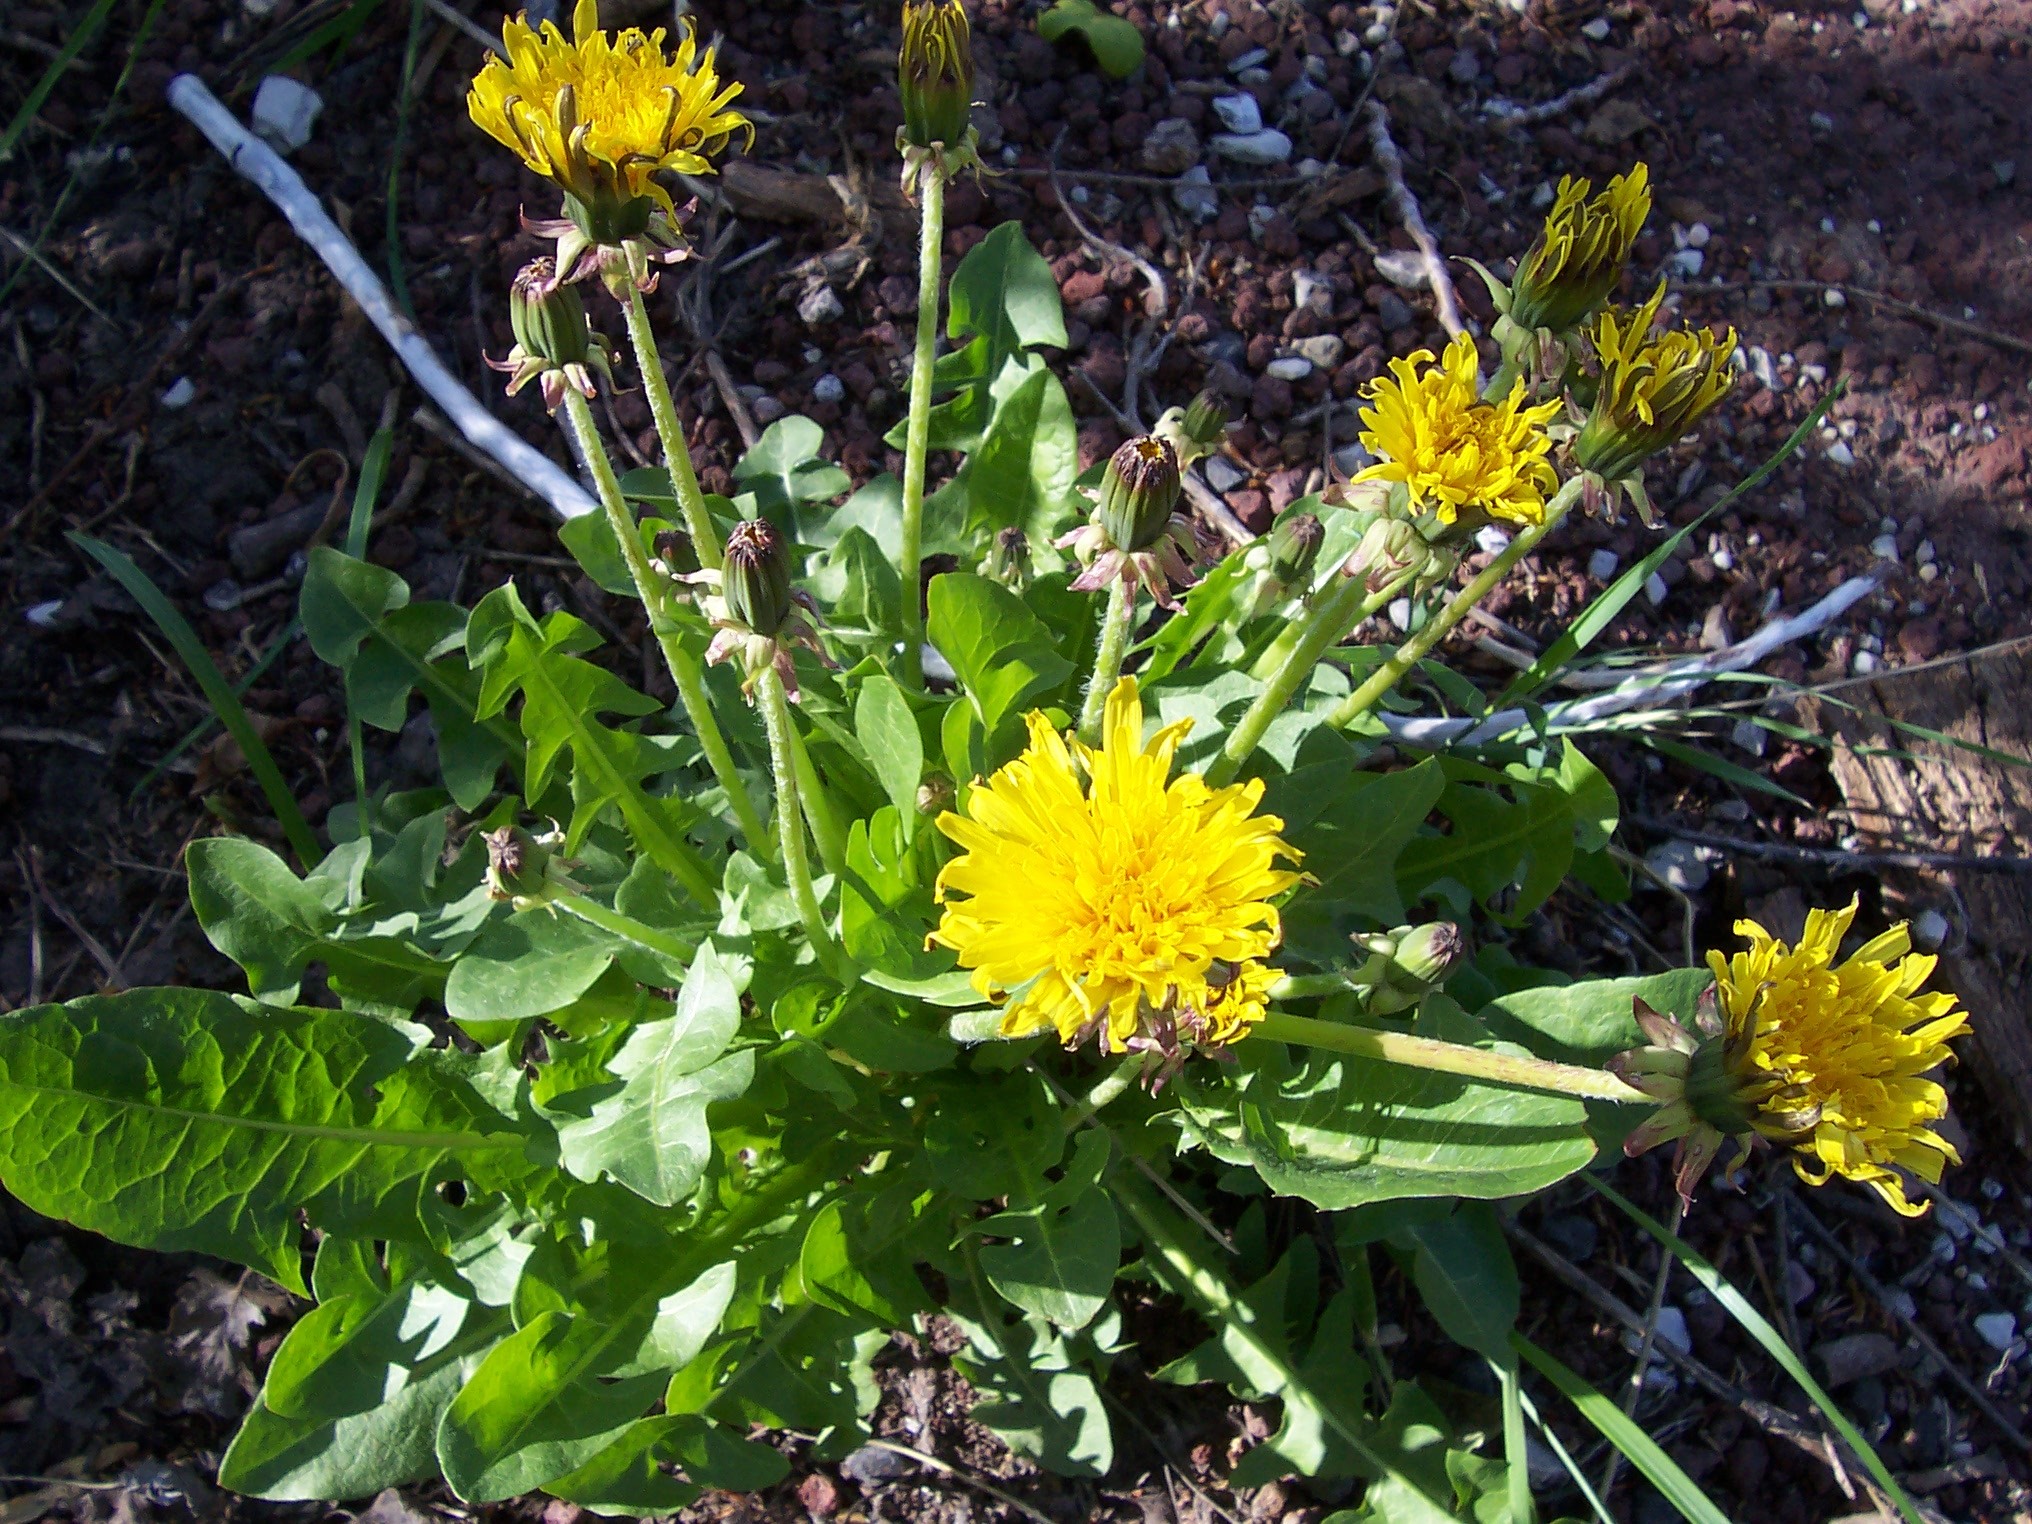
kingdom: Plantae
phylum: Tracheophyta
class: Magnoliopsida
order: Asterales
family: Asteraceae
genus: Taraxacum
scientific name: Taraxacum officinale
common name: Common dandelion
